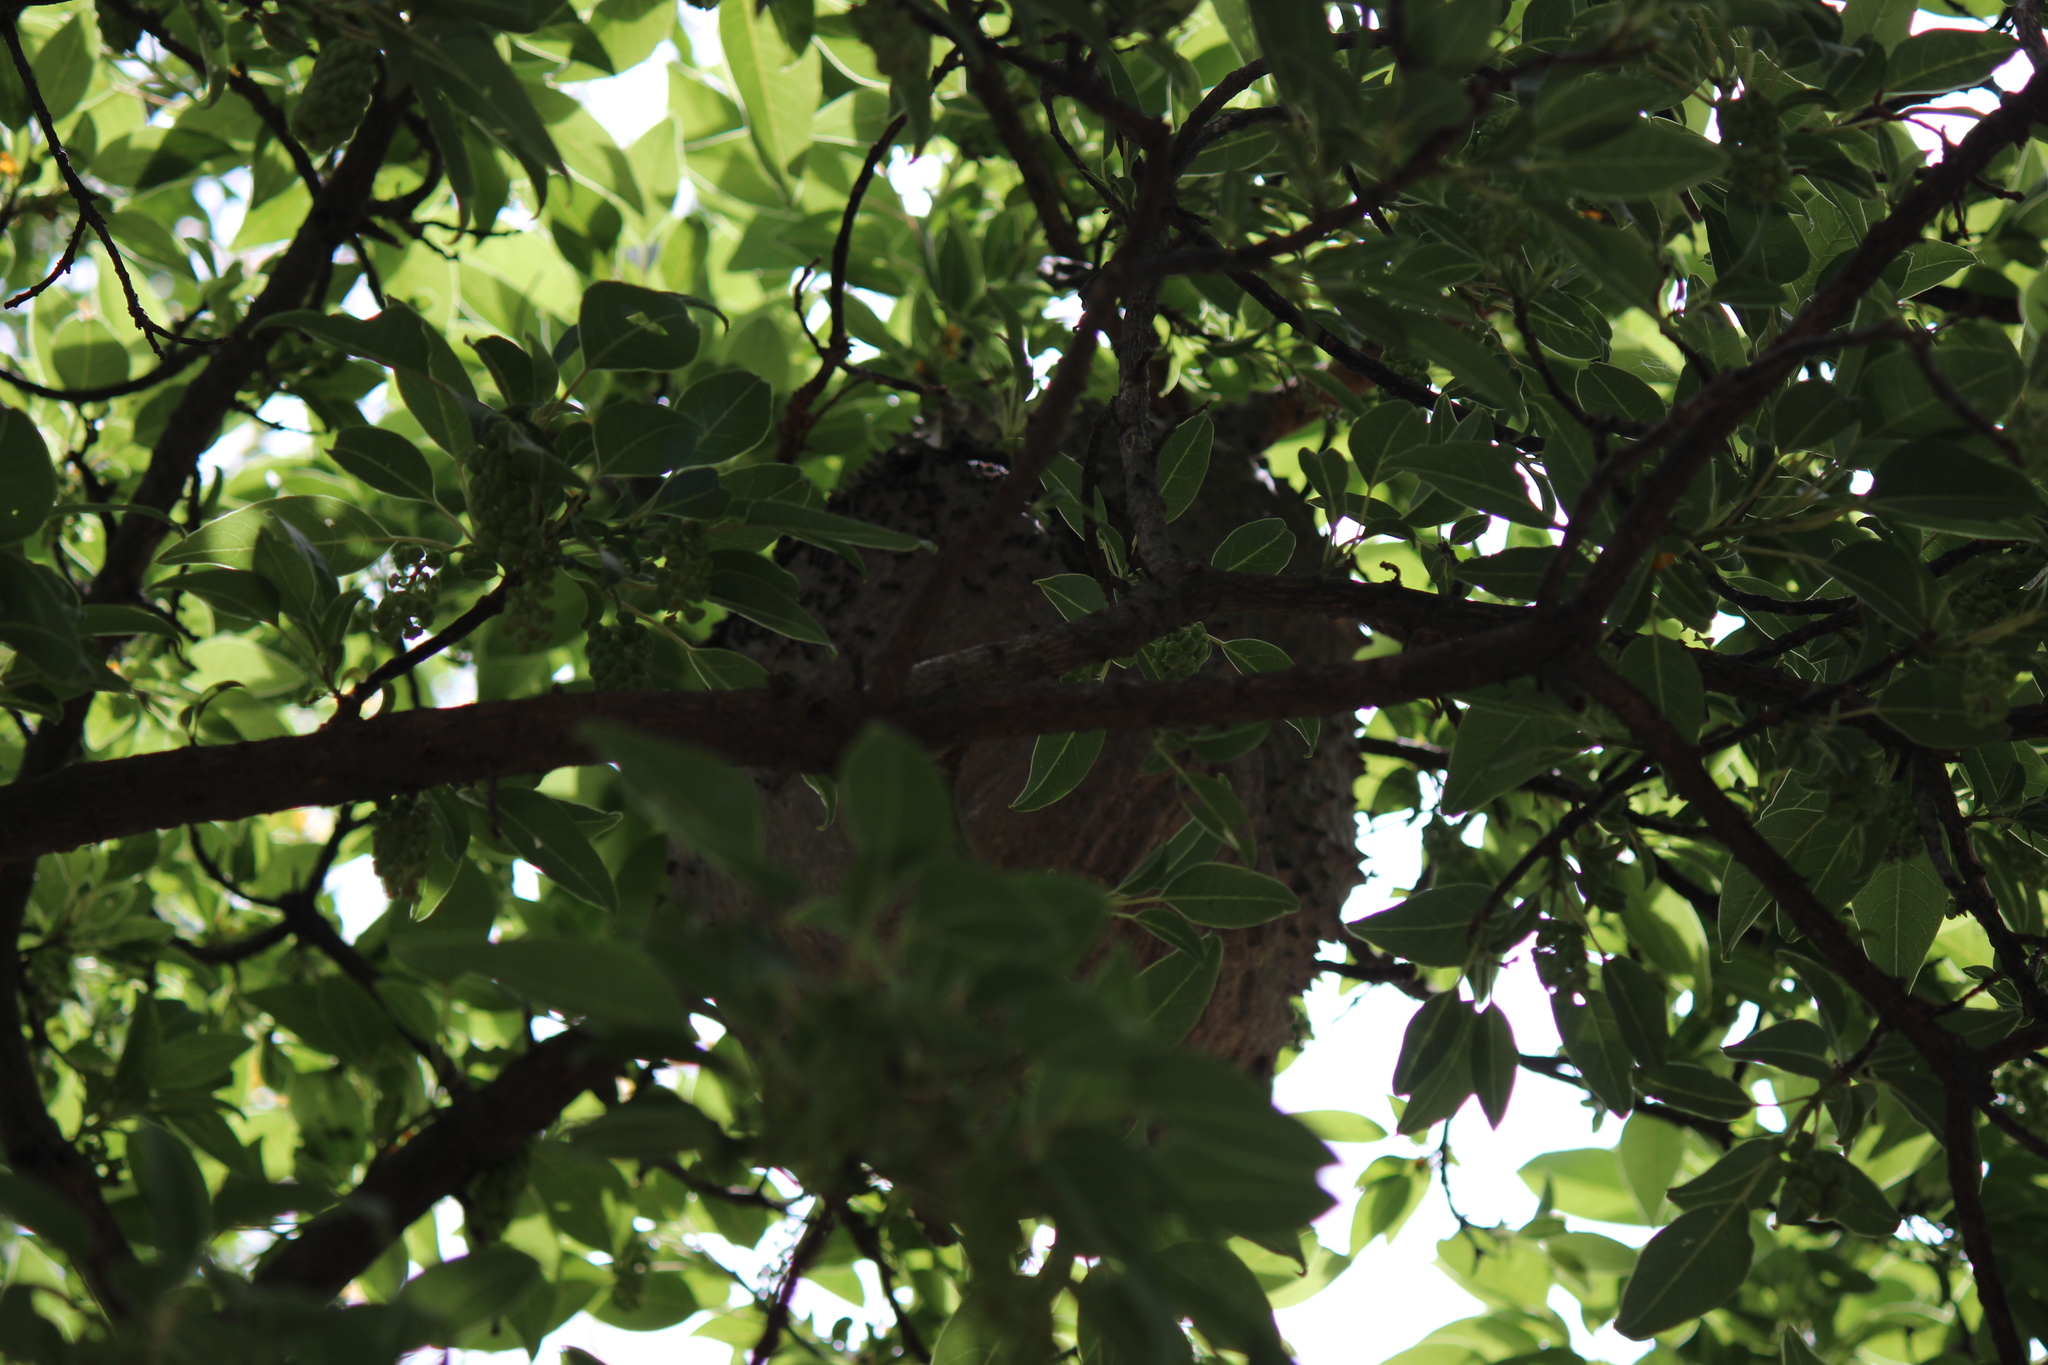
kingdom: Animalia
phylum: Arthropoda
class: Insecta
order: Hymenoptera
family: Eumenidae
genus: Polybia
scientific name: Polybia scutellaris
